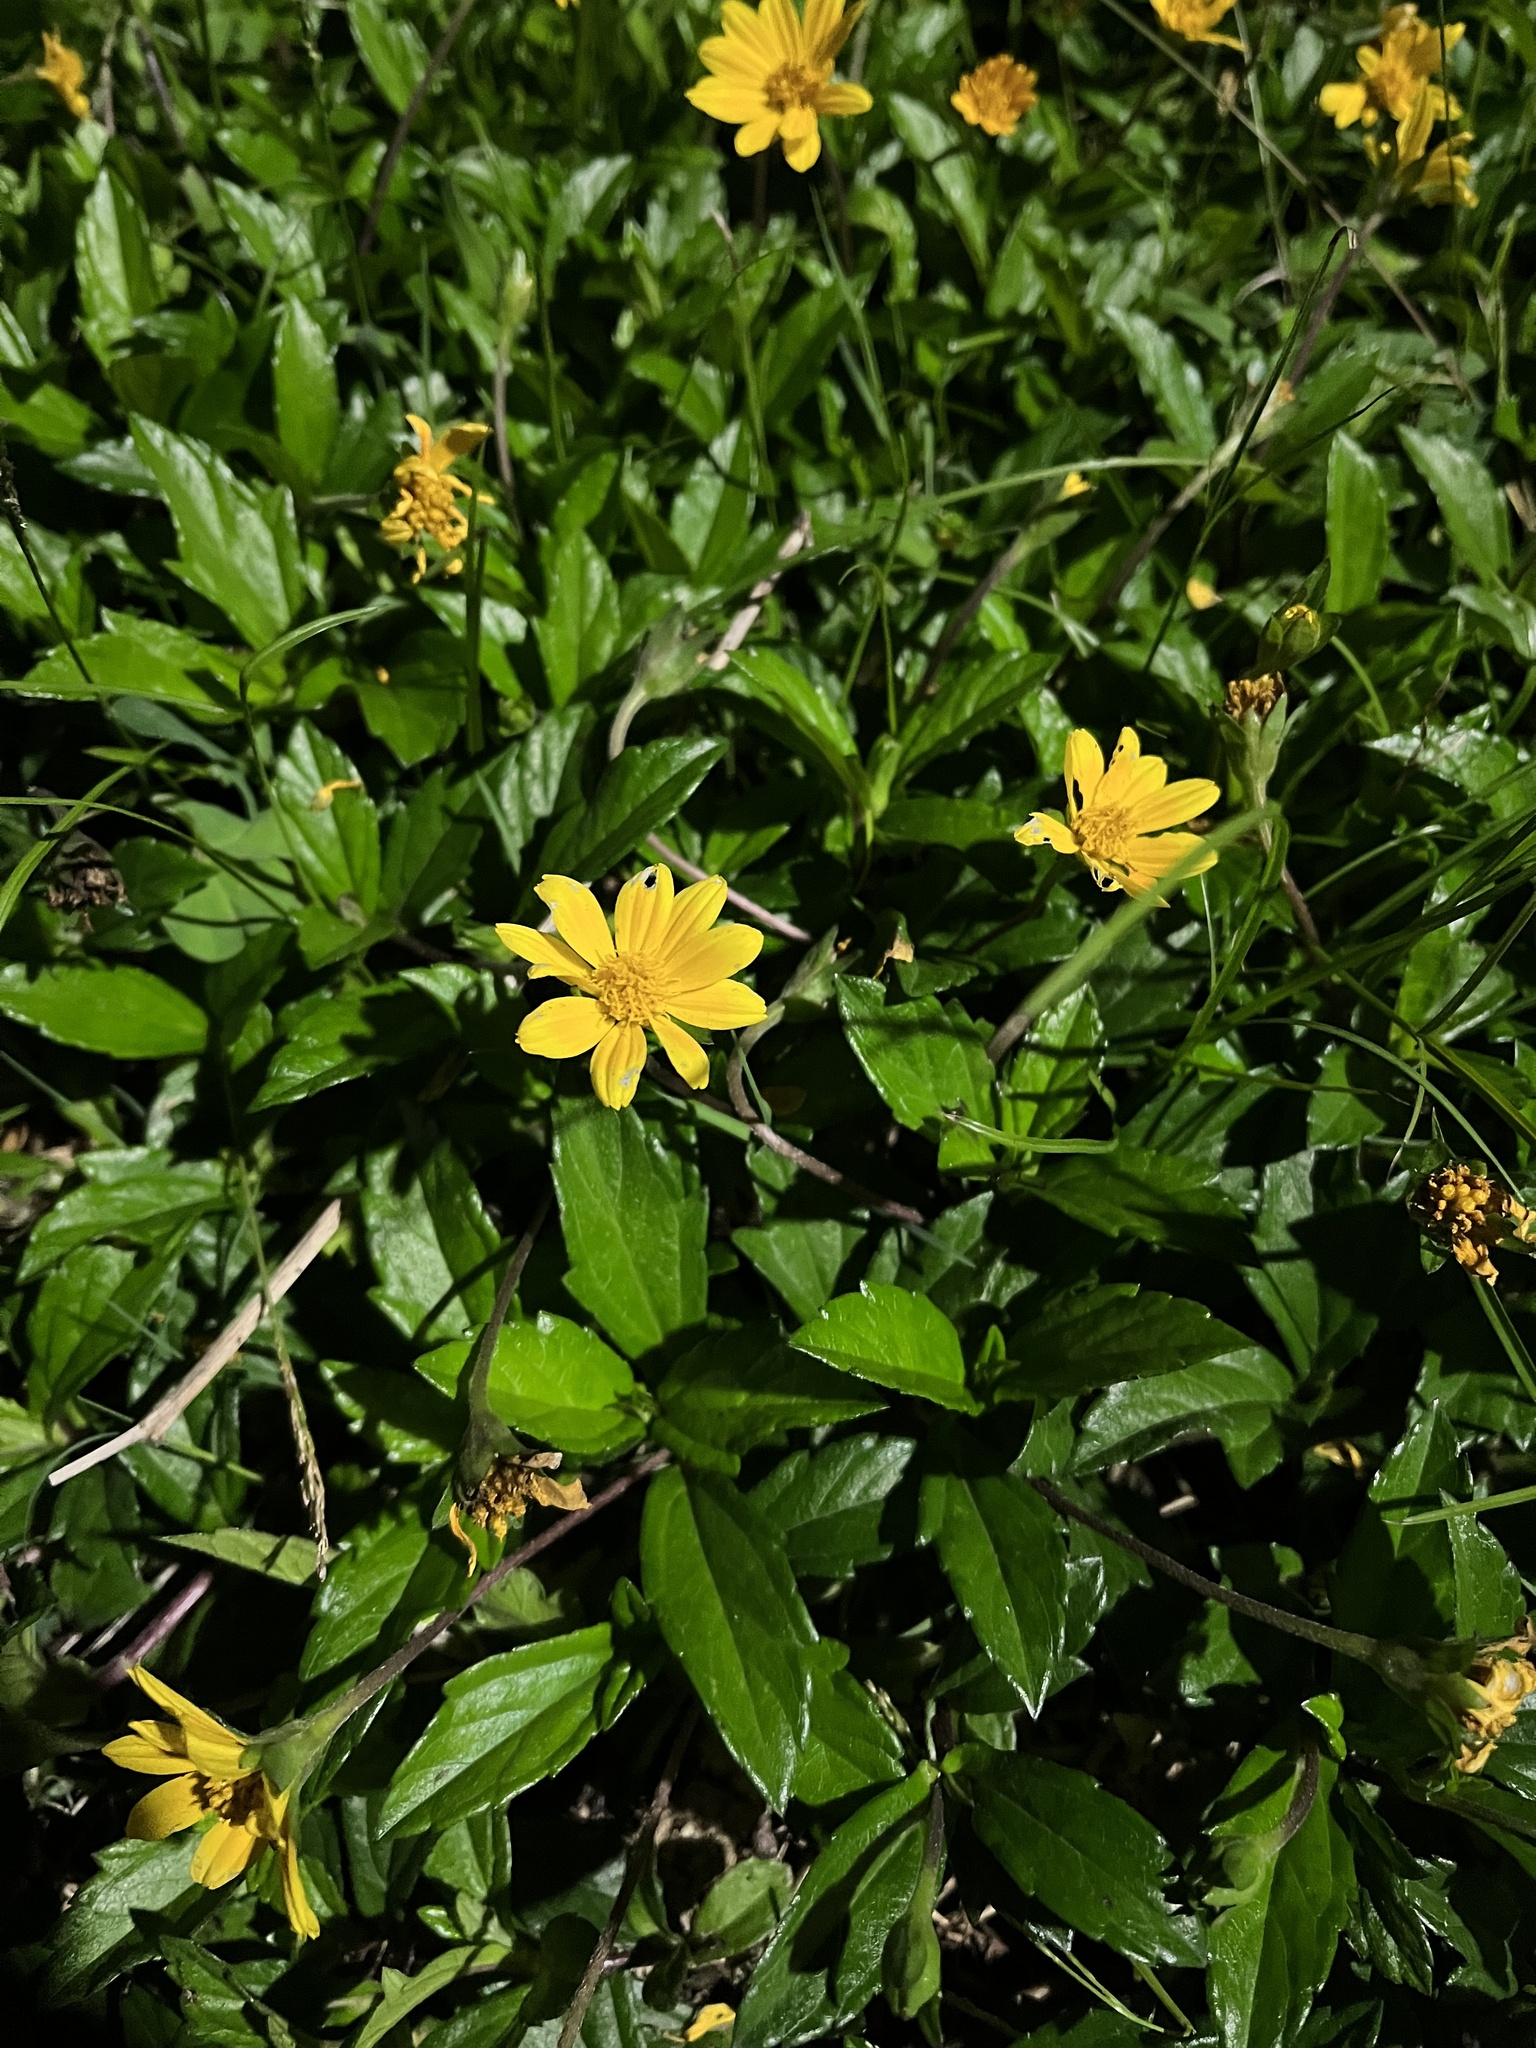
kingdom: Plantae
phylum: Tracheophyta
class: Magnoliopsida
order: Asterales
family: Asteraceae
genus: Sphagneticola
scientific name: Sphagneticola trilobata
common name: Bay biscayne creeping-oxeye
